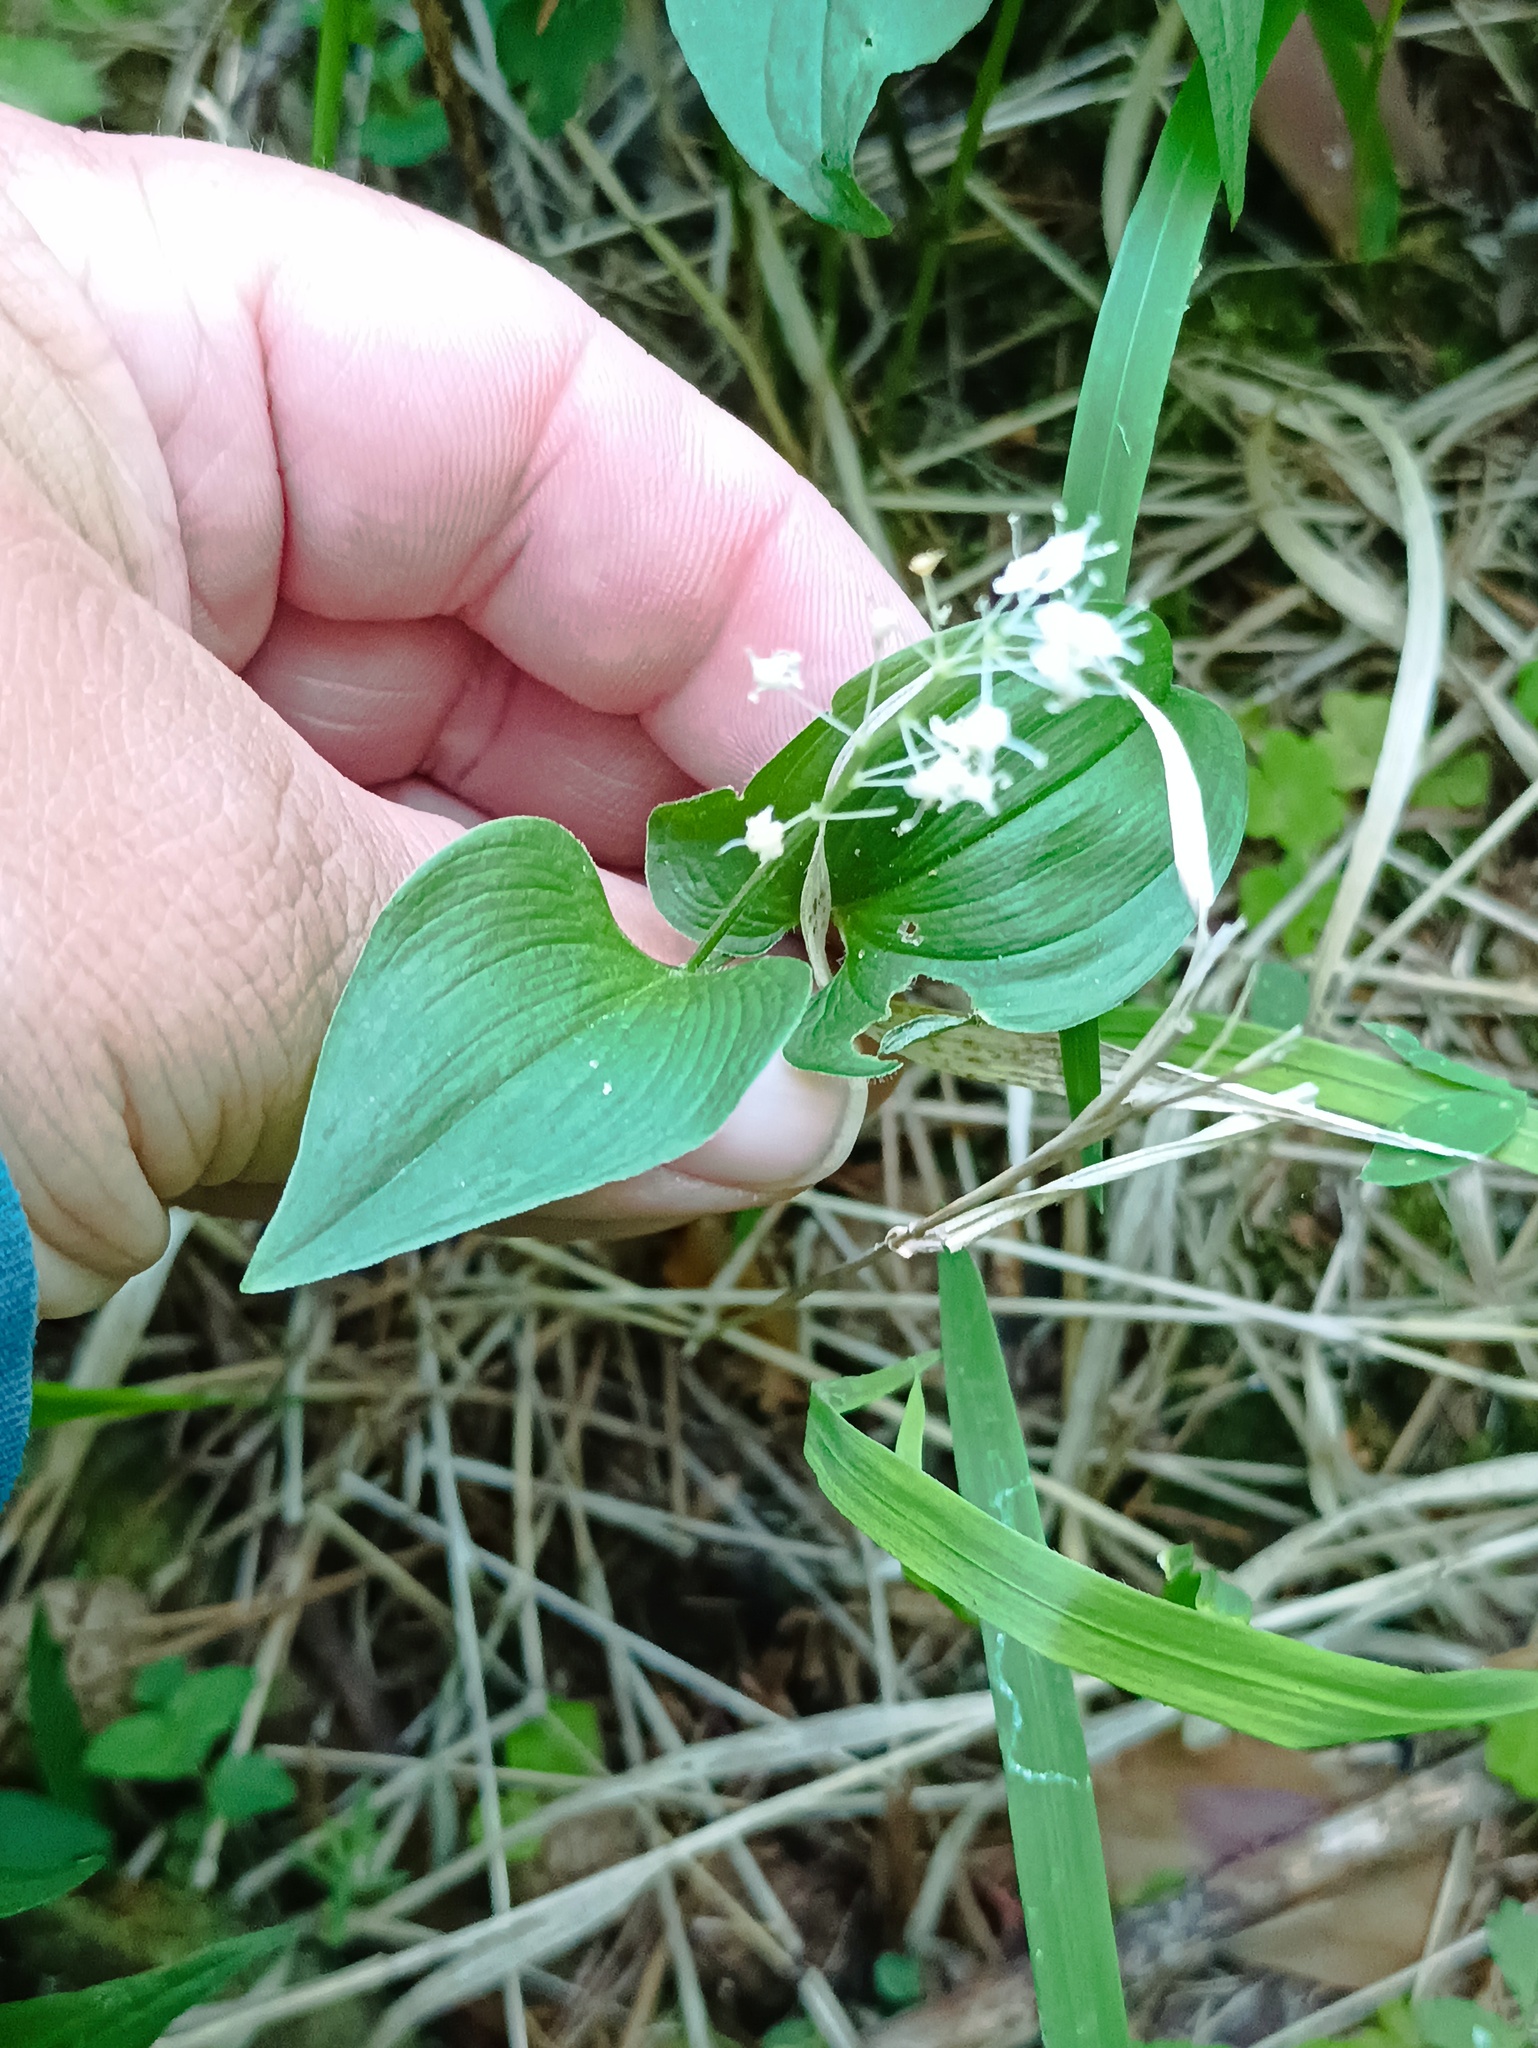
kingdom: Plantae
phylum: Tracheophyta
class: Liliopsida
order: Asparagales
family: Asparagaceae
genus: Maianthemum
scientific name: Maianthemum bifolium
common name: May lily
